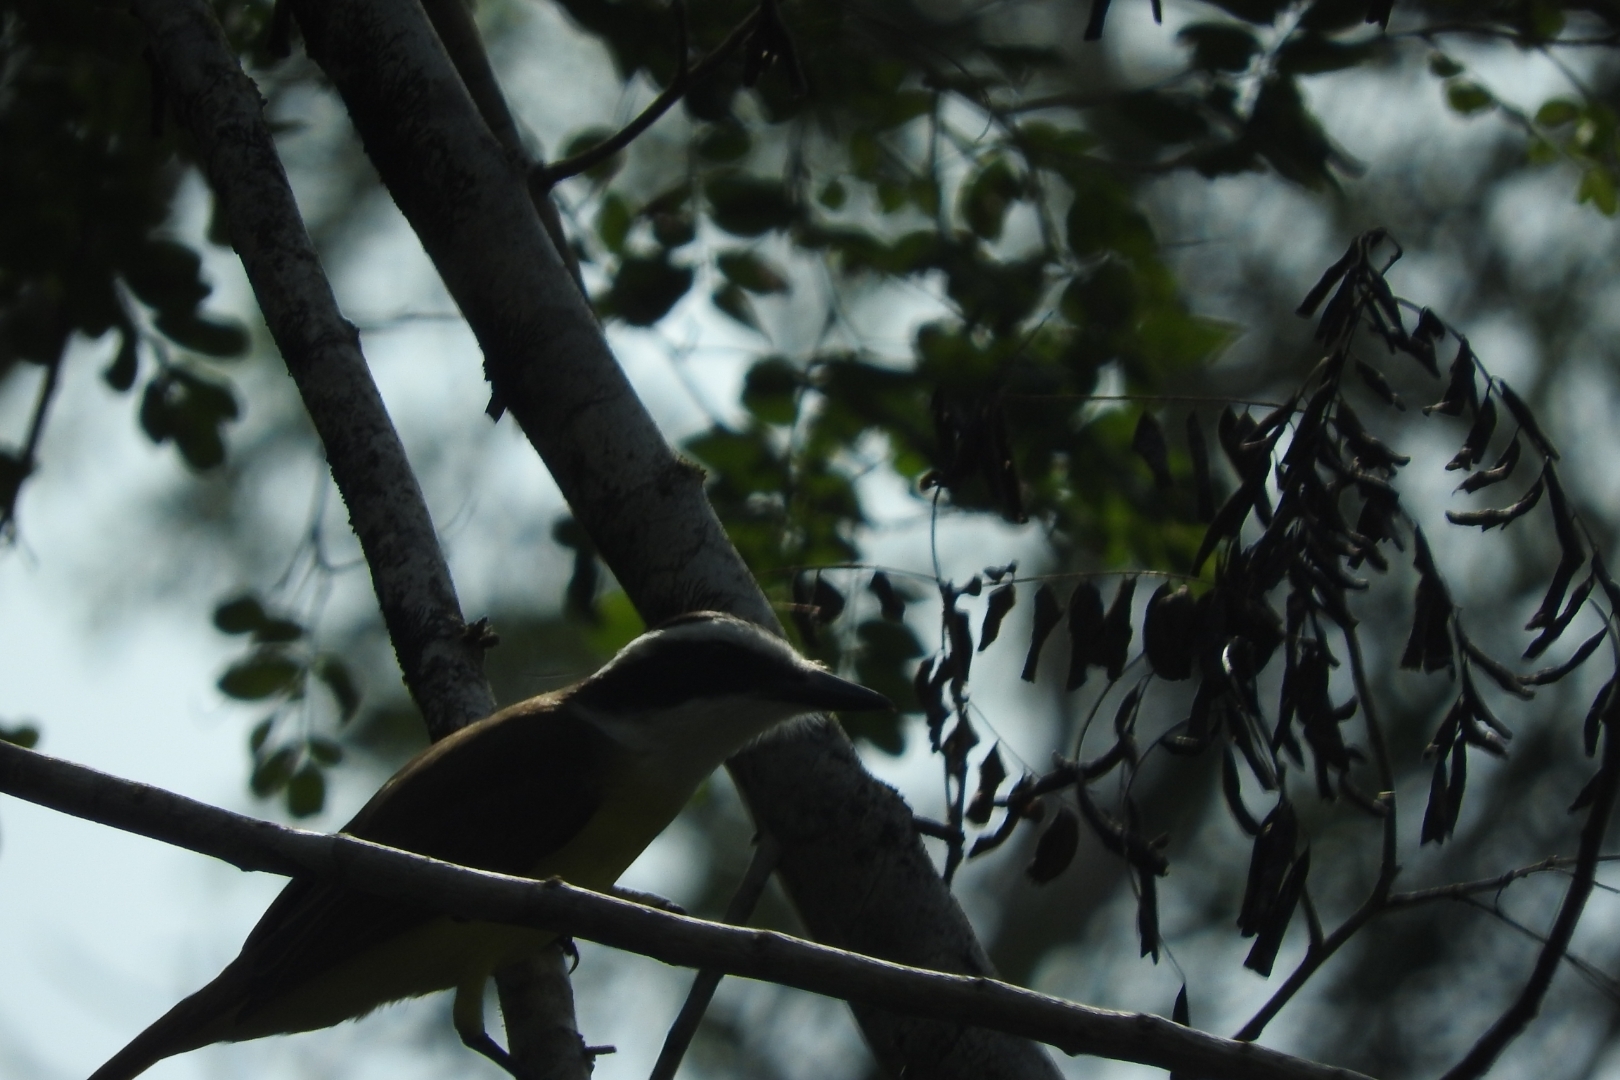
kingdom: Animalia
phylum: Chordata
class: Aves
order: Passeriformes
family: Tyrannidae
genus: Pitangus
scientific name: Pitangus sulphuratus
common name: Great kiskadee
